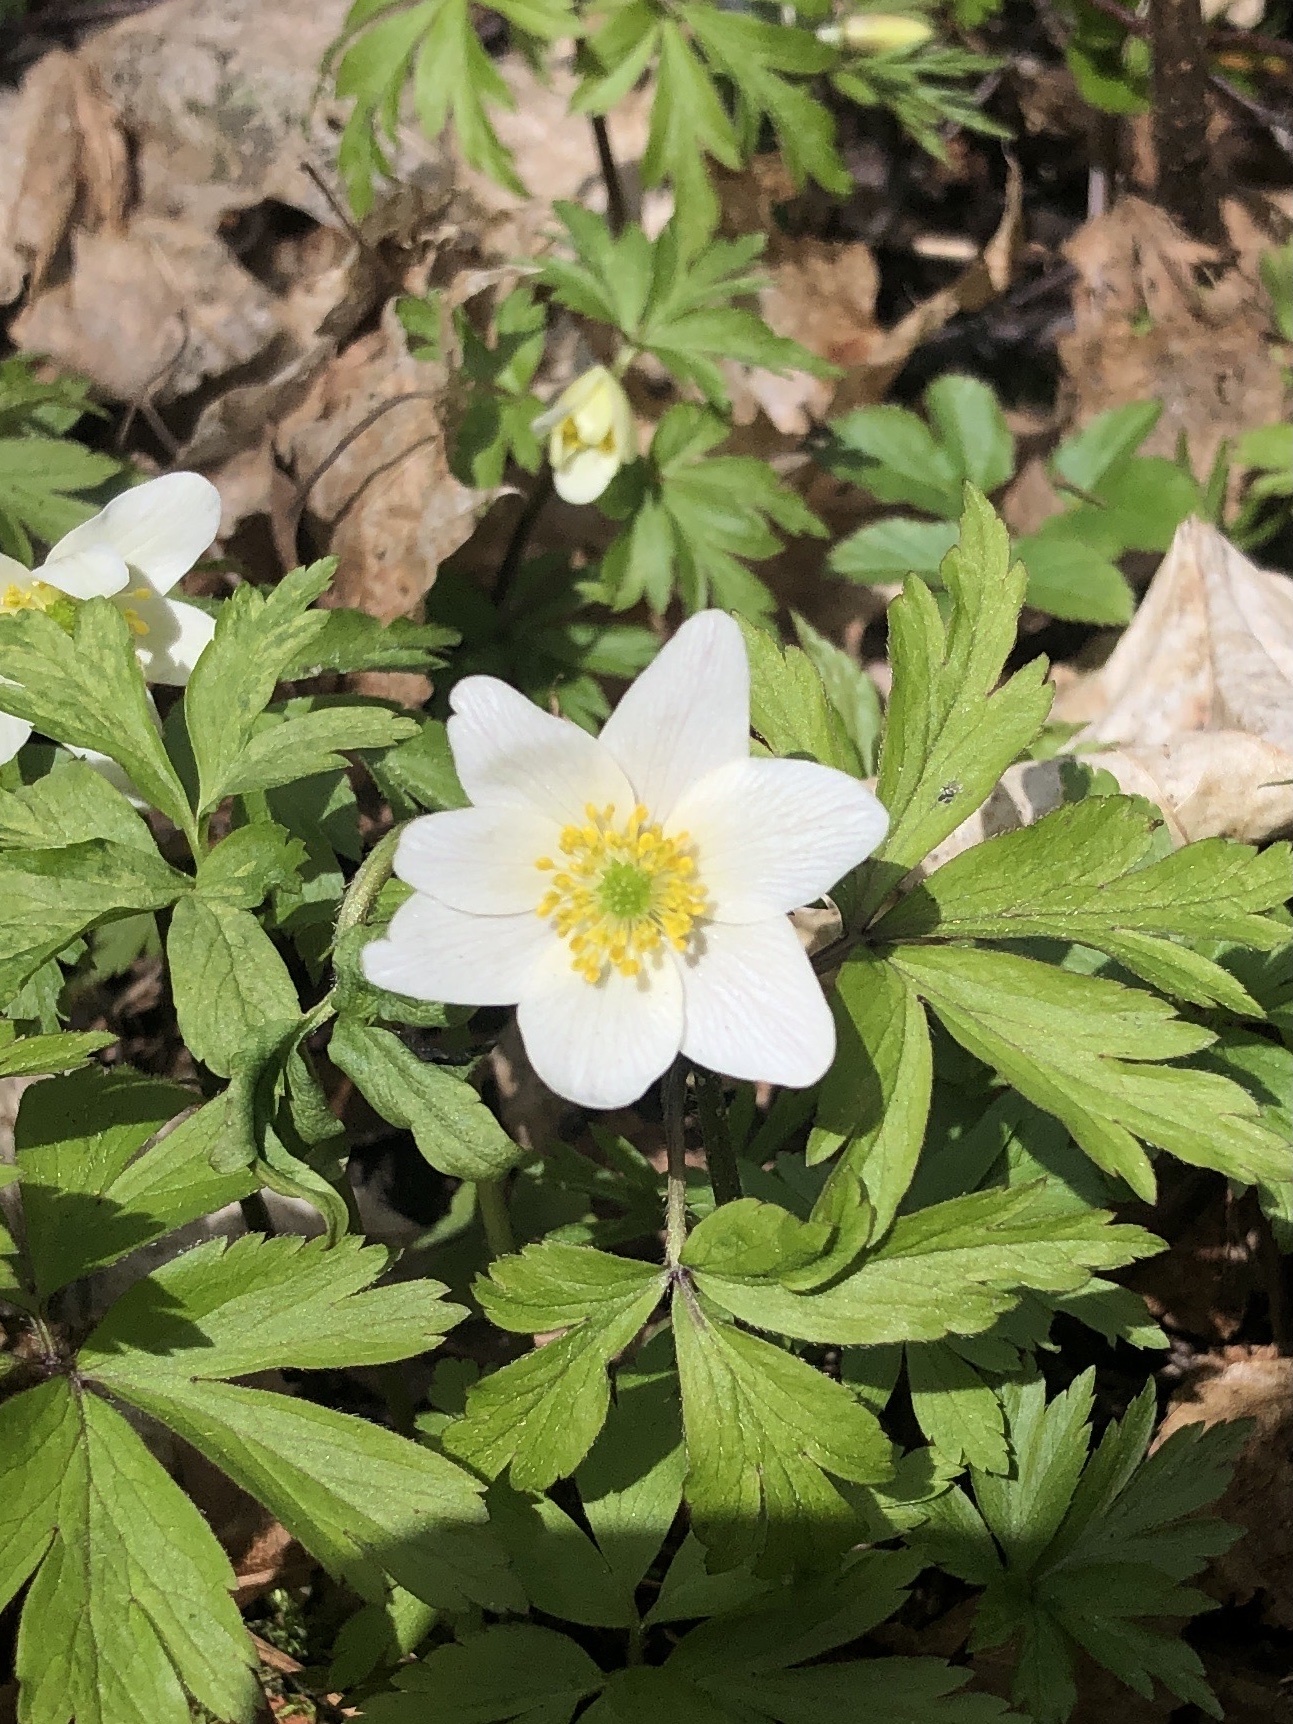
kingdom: Plantae
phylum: Tracheophyta
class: Magnoliopsida
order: Ranunculales
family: Ranunculaceae
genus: Anemone
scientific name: Anemone nemorosa
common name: Wood anemone
